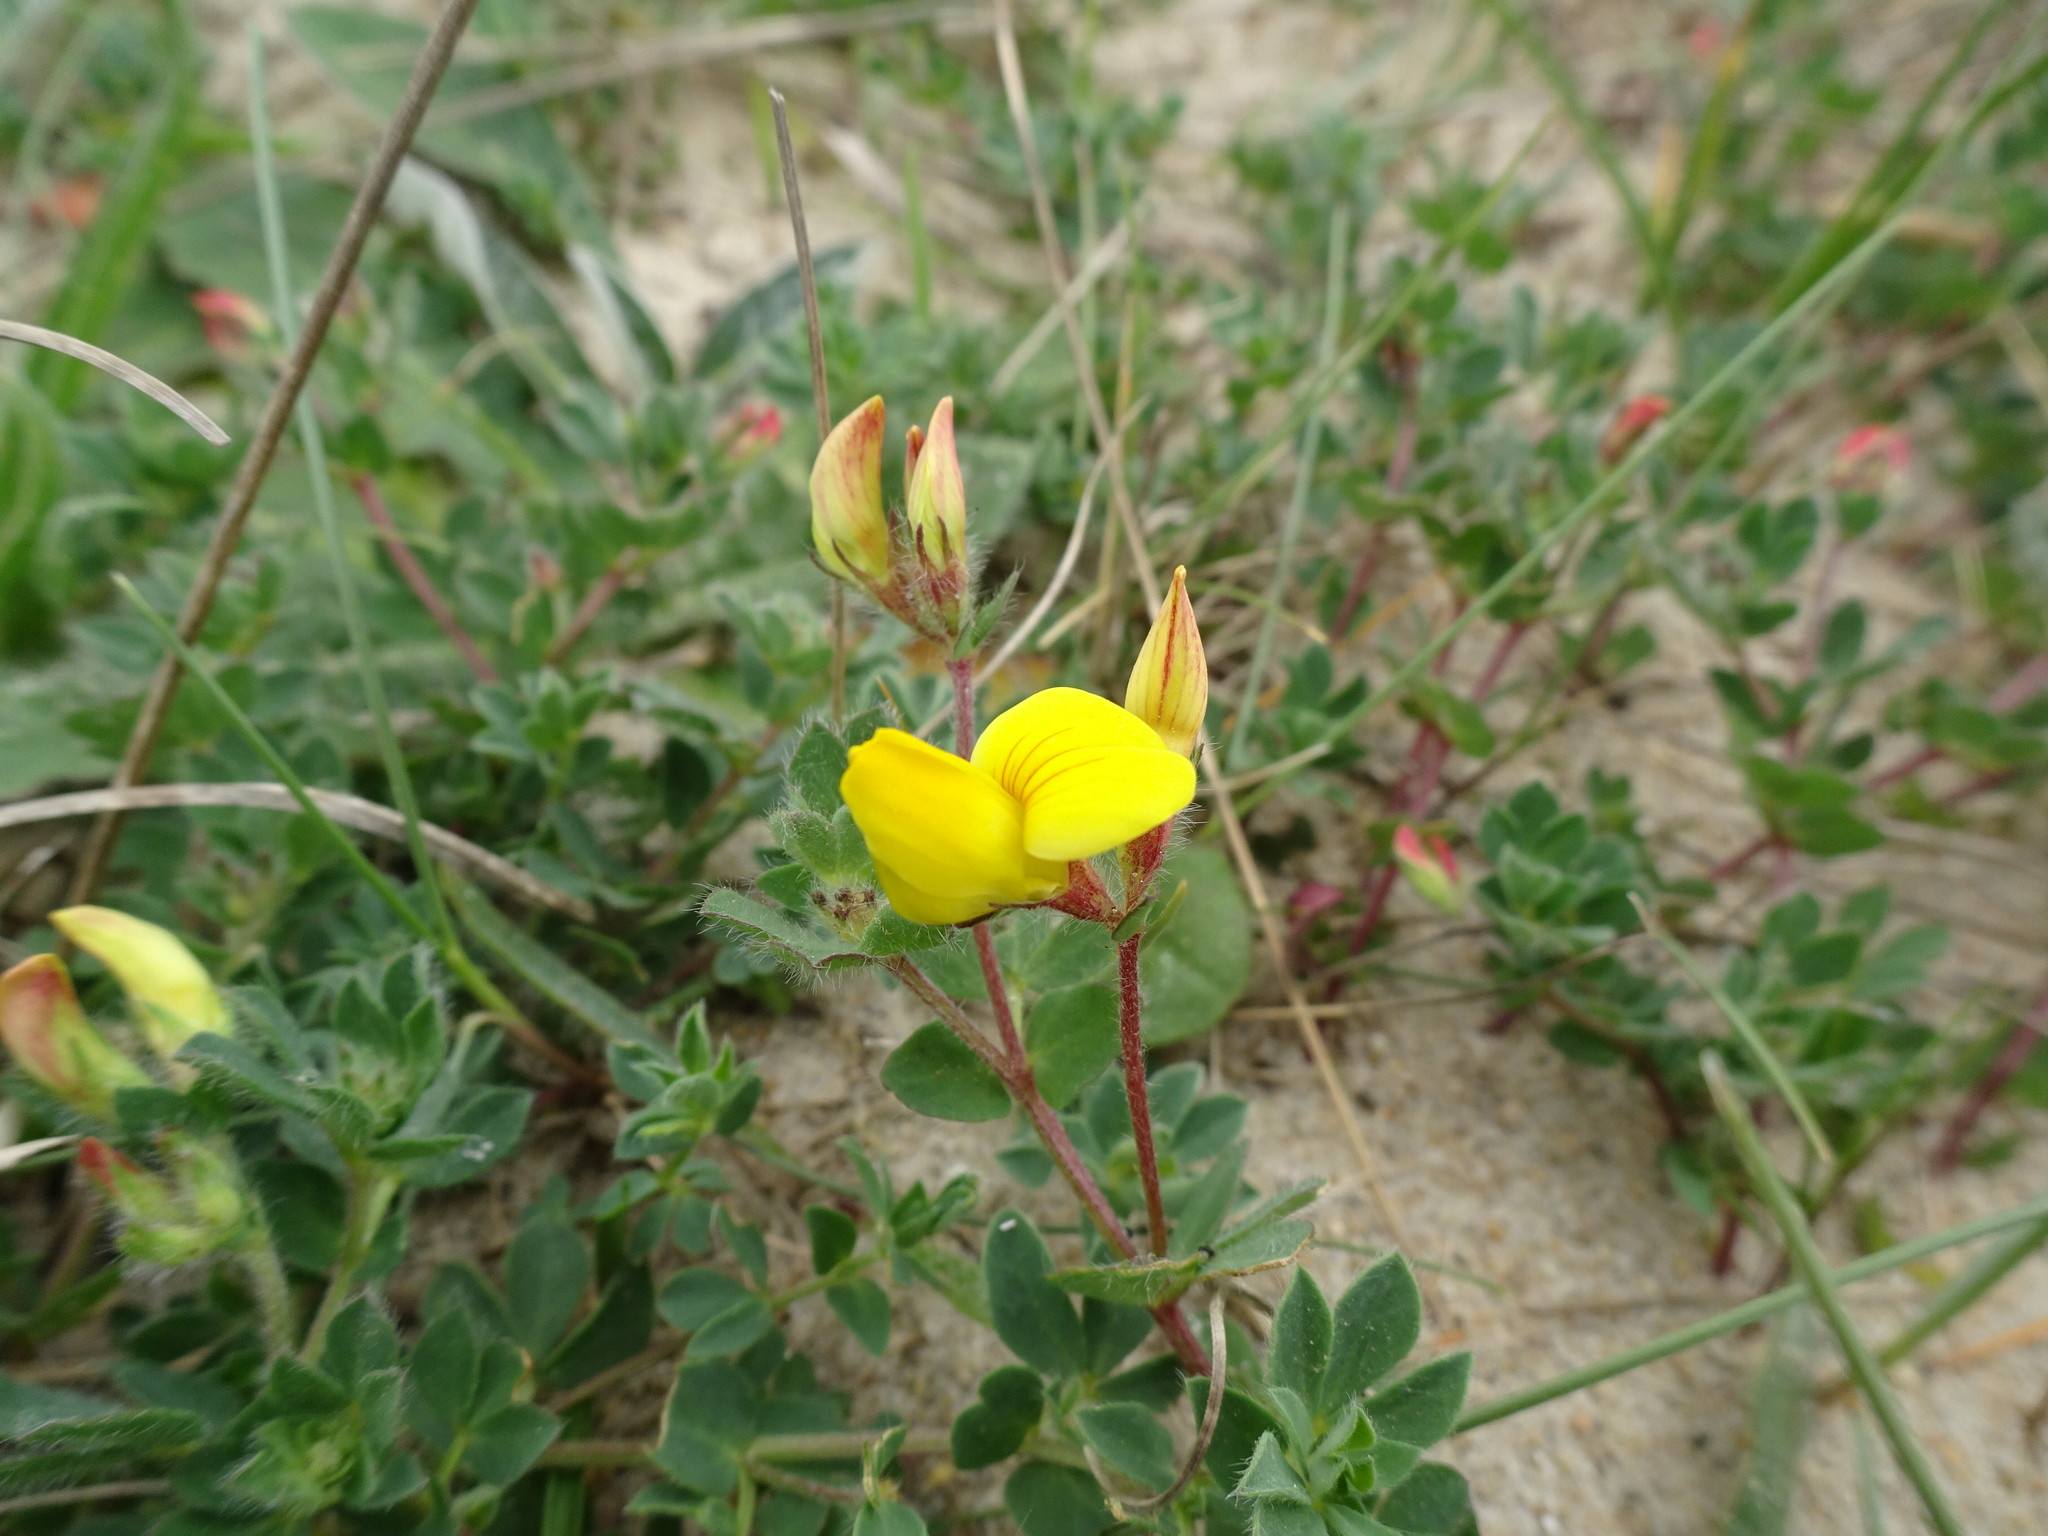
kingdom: Plantae
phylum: Tracheophyta
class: Magnoliopsida
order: Fabales
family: Fabaceae
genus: Lotus
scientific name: Lotus corniculatus
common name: Common bird's-foot-trefoil
